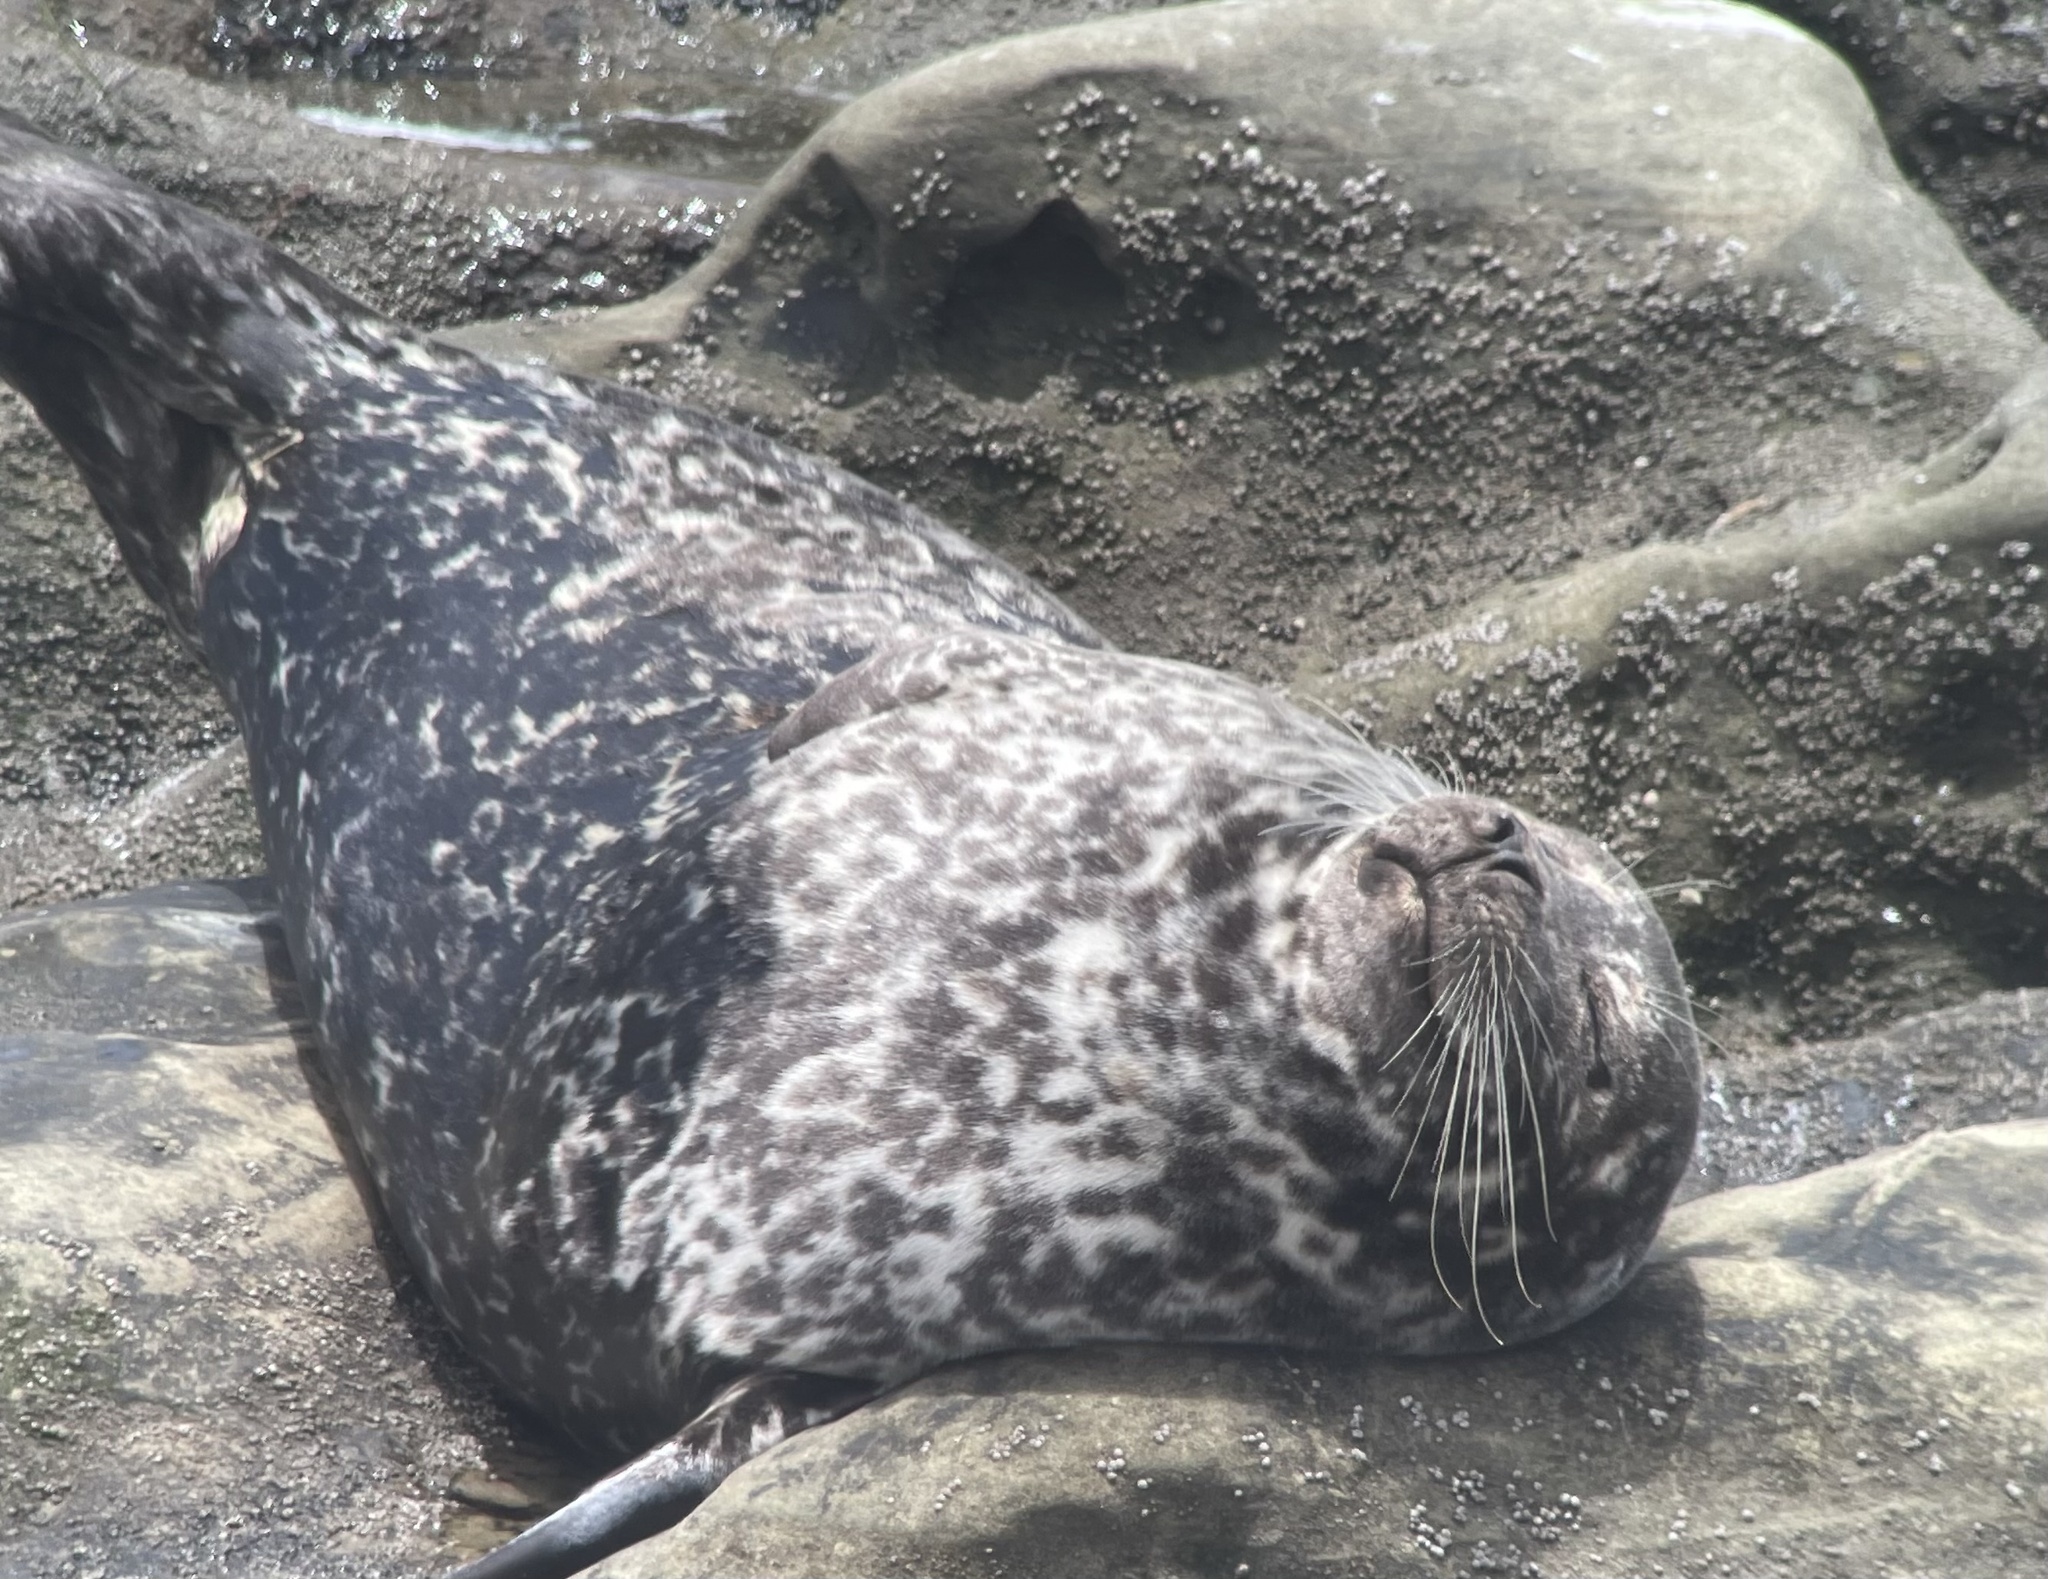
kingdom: Animalia
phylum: Chordata
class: Mammalia
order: Carnivora
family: Phocidae
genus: Phoca
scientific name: Phoca vitulina
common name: Harbor seal
